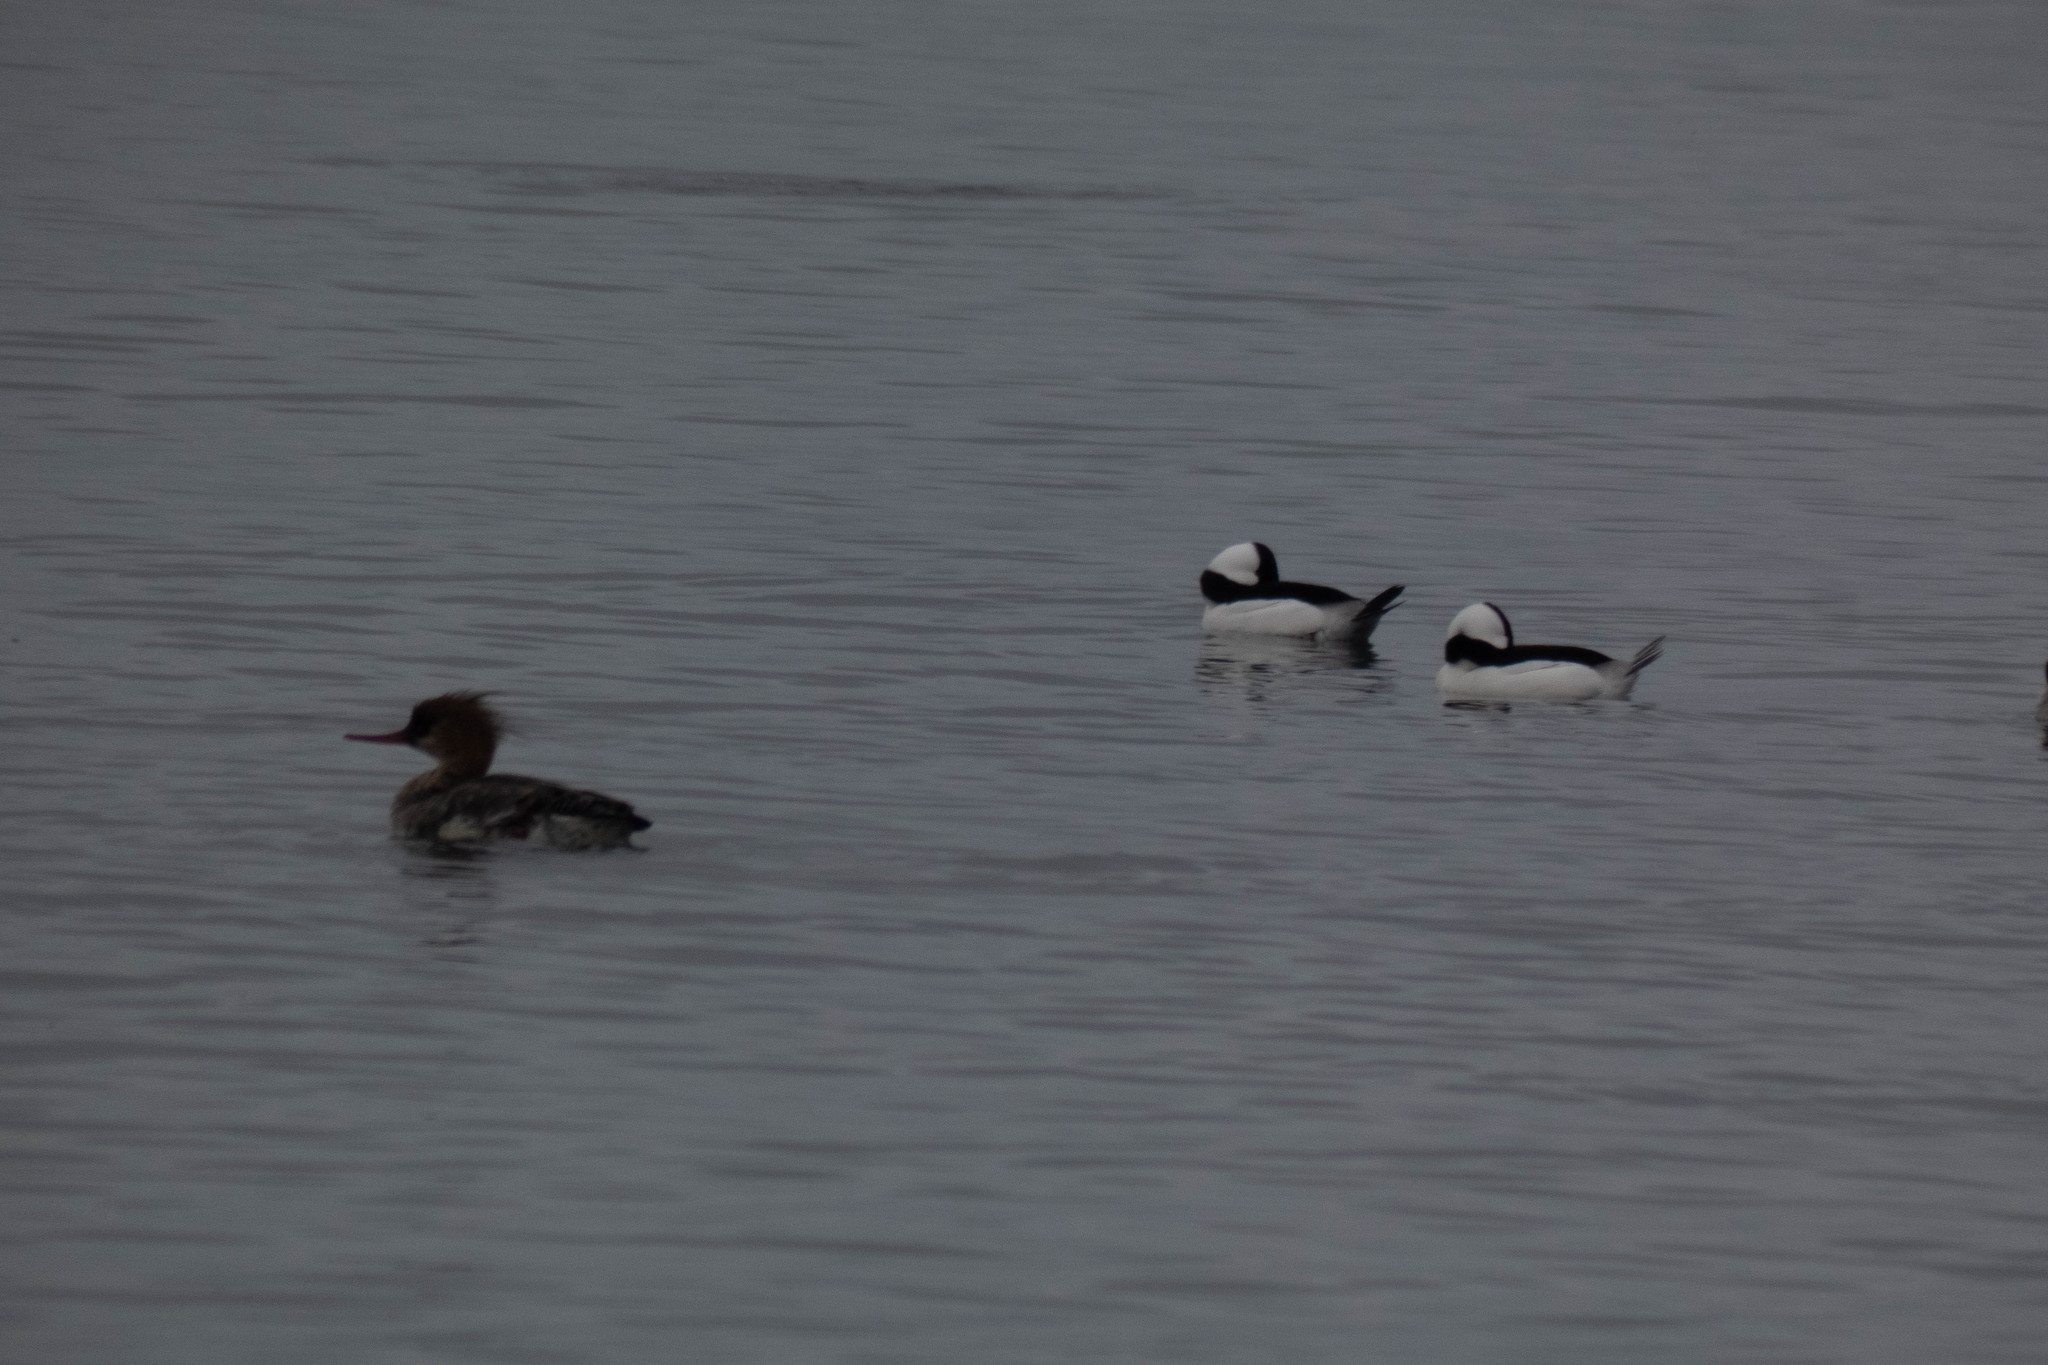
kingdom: Animalia
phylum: Chordata
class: Aves
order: Anseriformes
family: Anatidae
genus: Mergus
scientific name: Mergus serrator
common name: Red-breasted merganser
